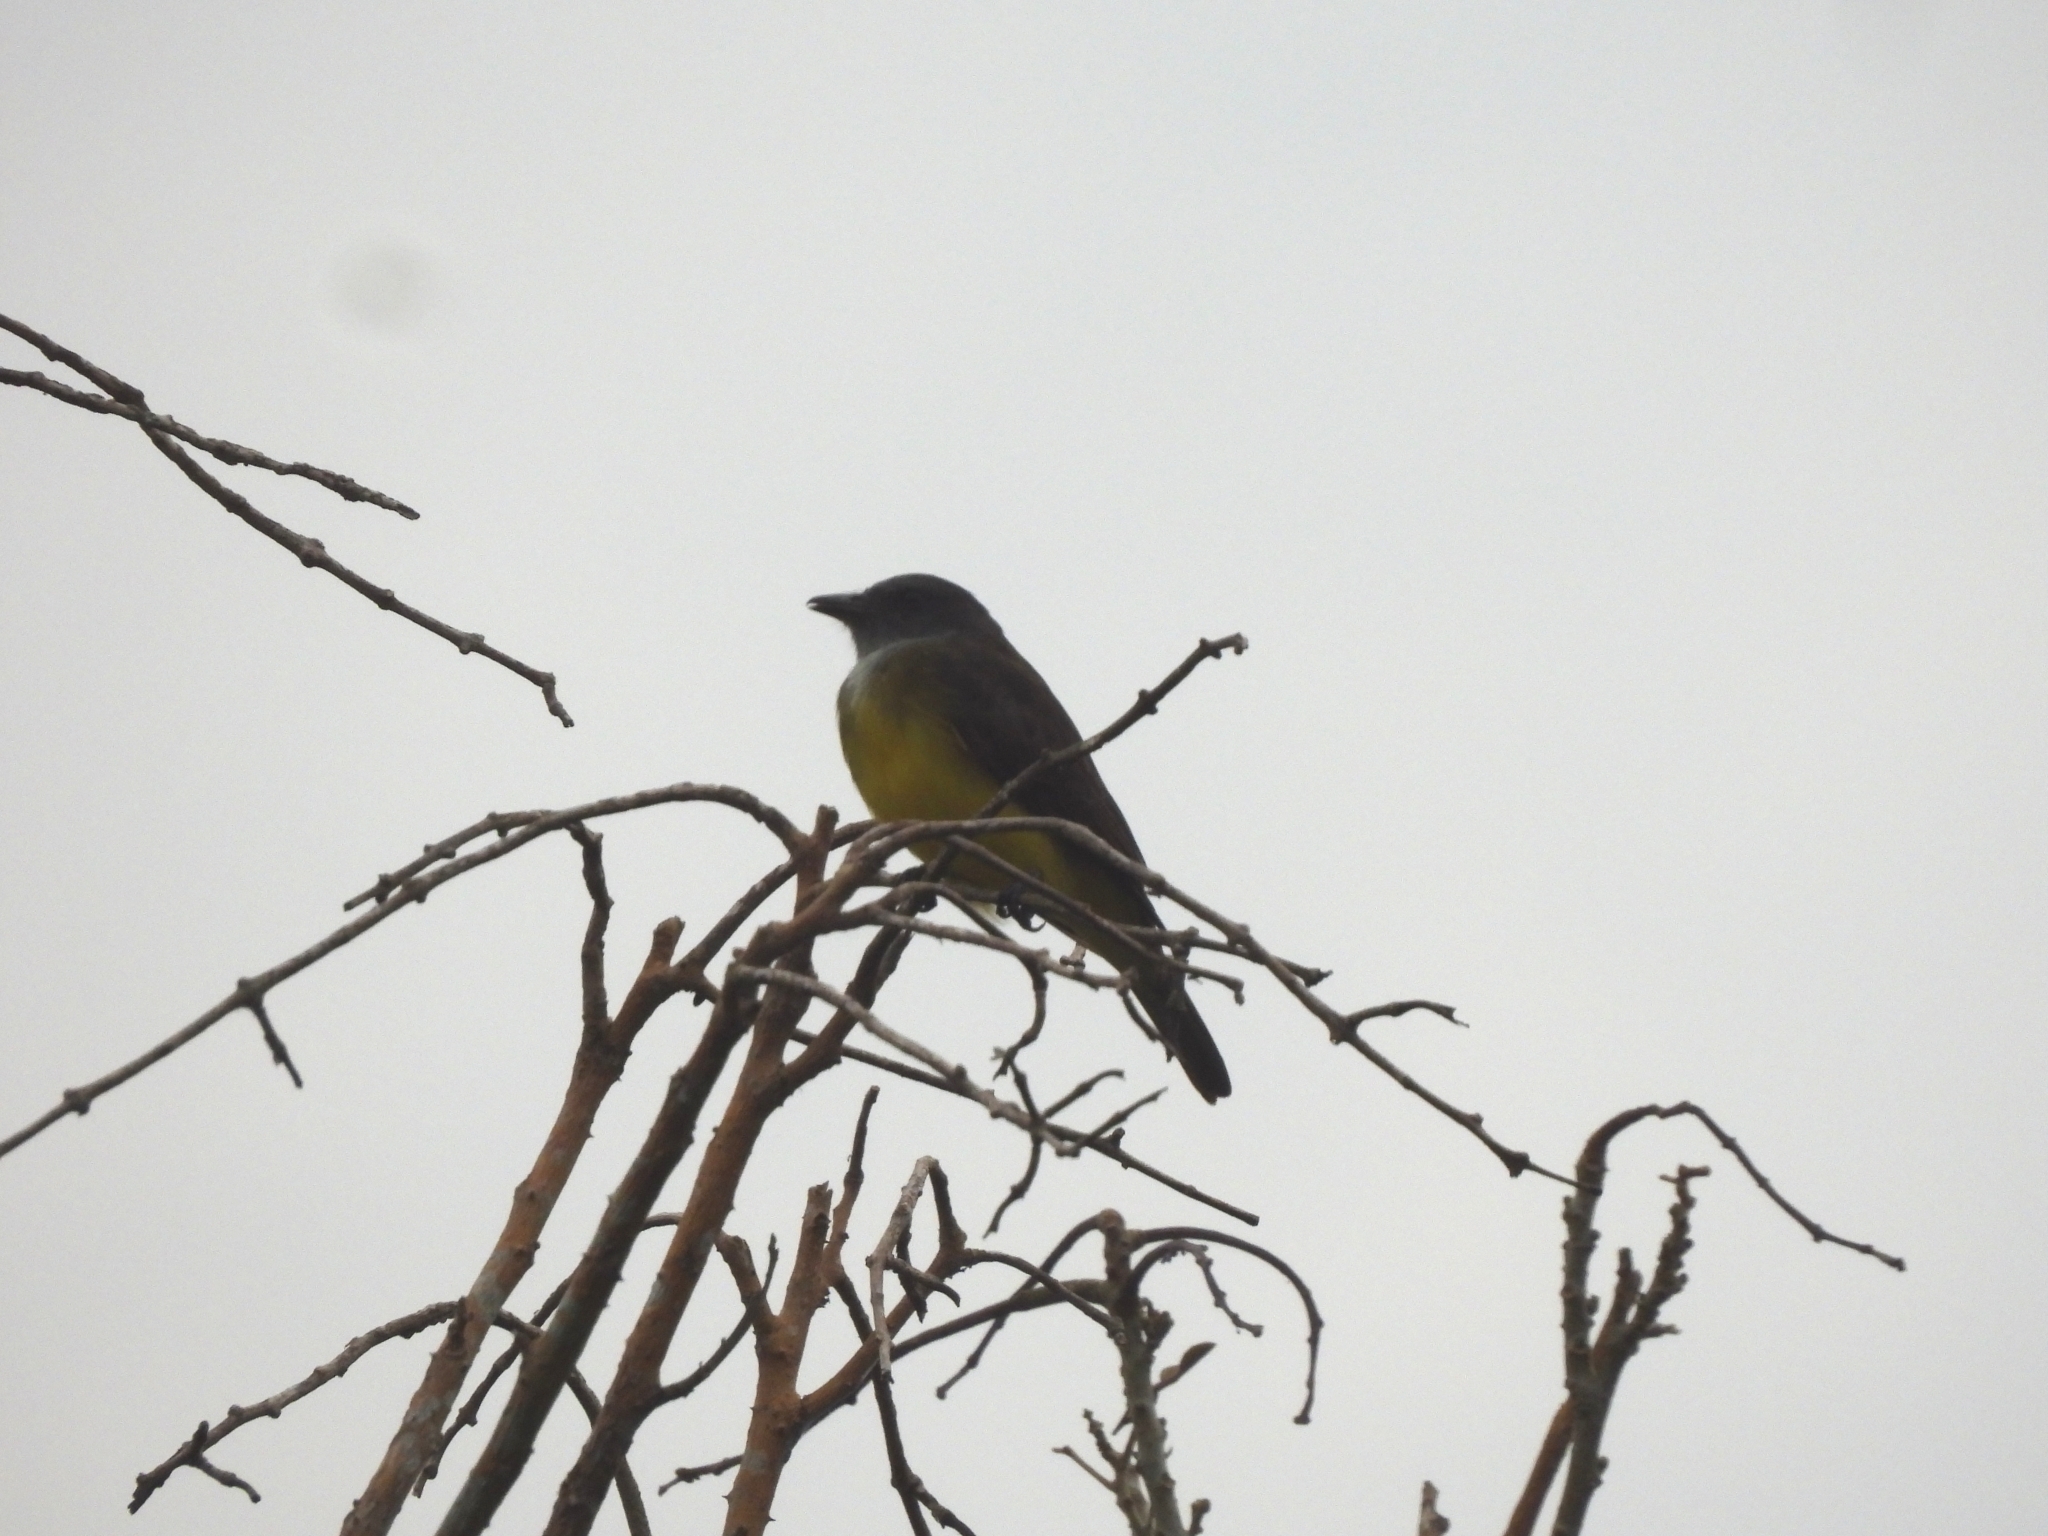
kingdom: Animalia
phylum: Chordata
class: Aves
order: Passeriformes
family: Tyrannidae
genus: Tyrannopsis
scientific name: Tyrannopsis sulphurea
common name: Sulphury flycatcher
